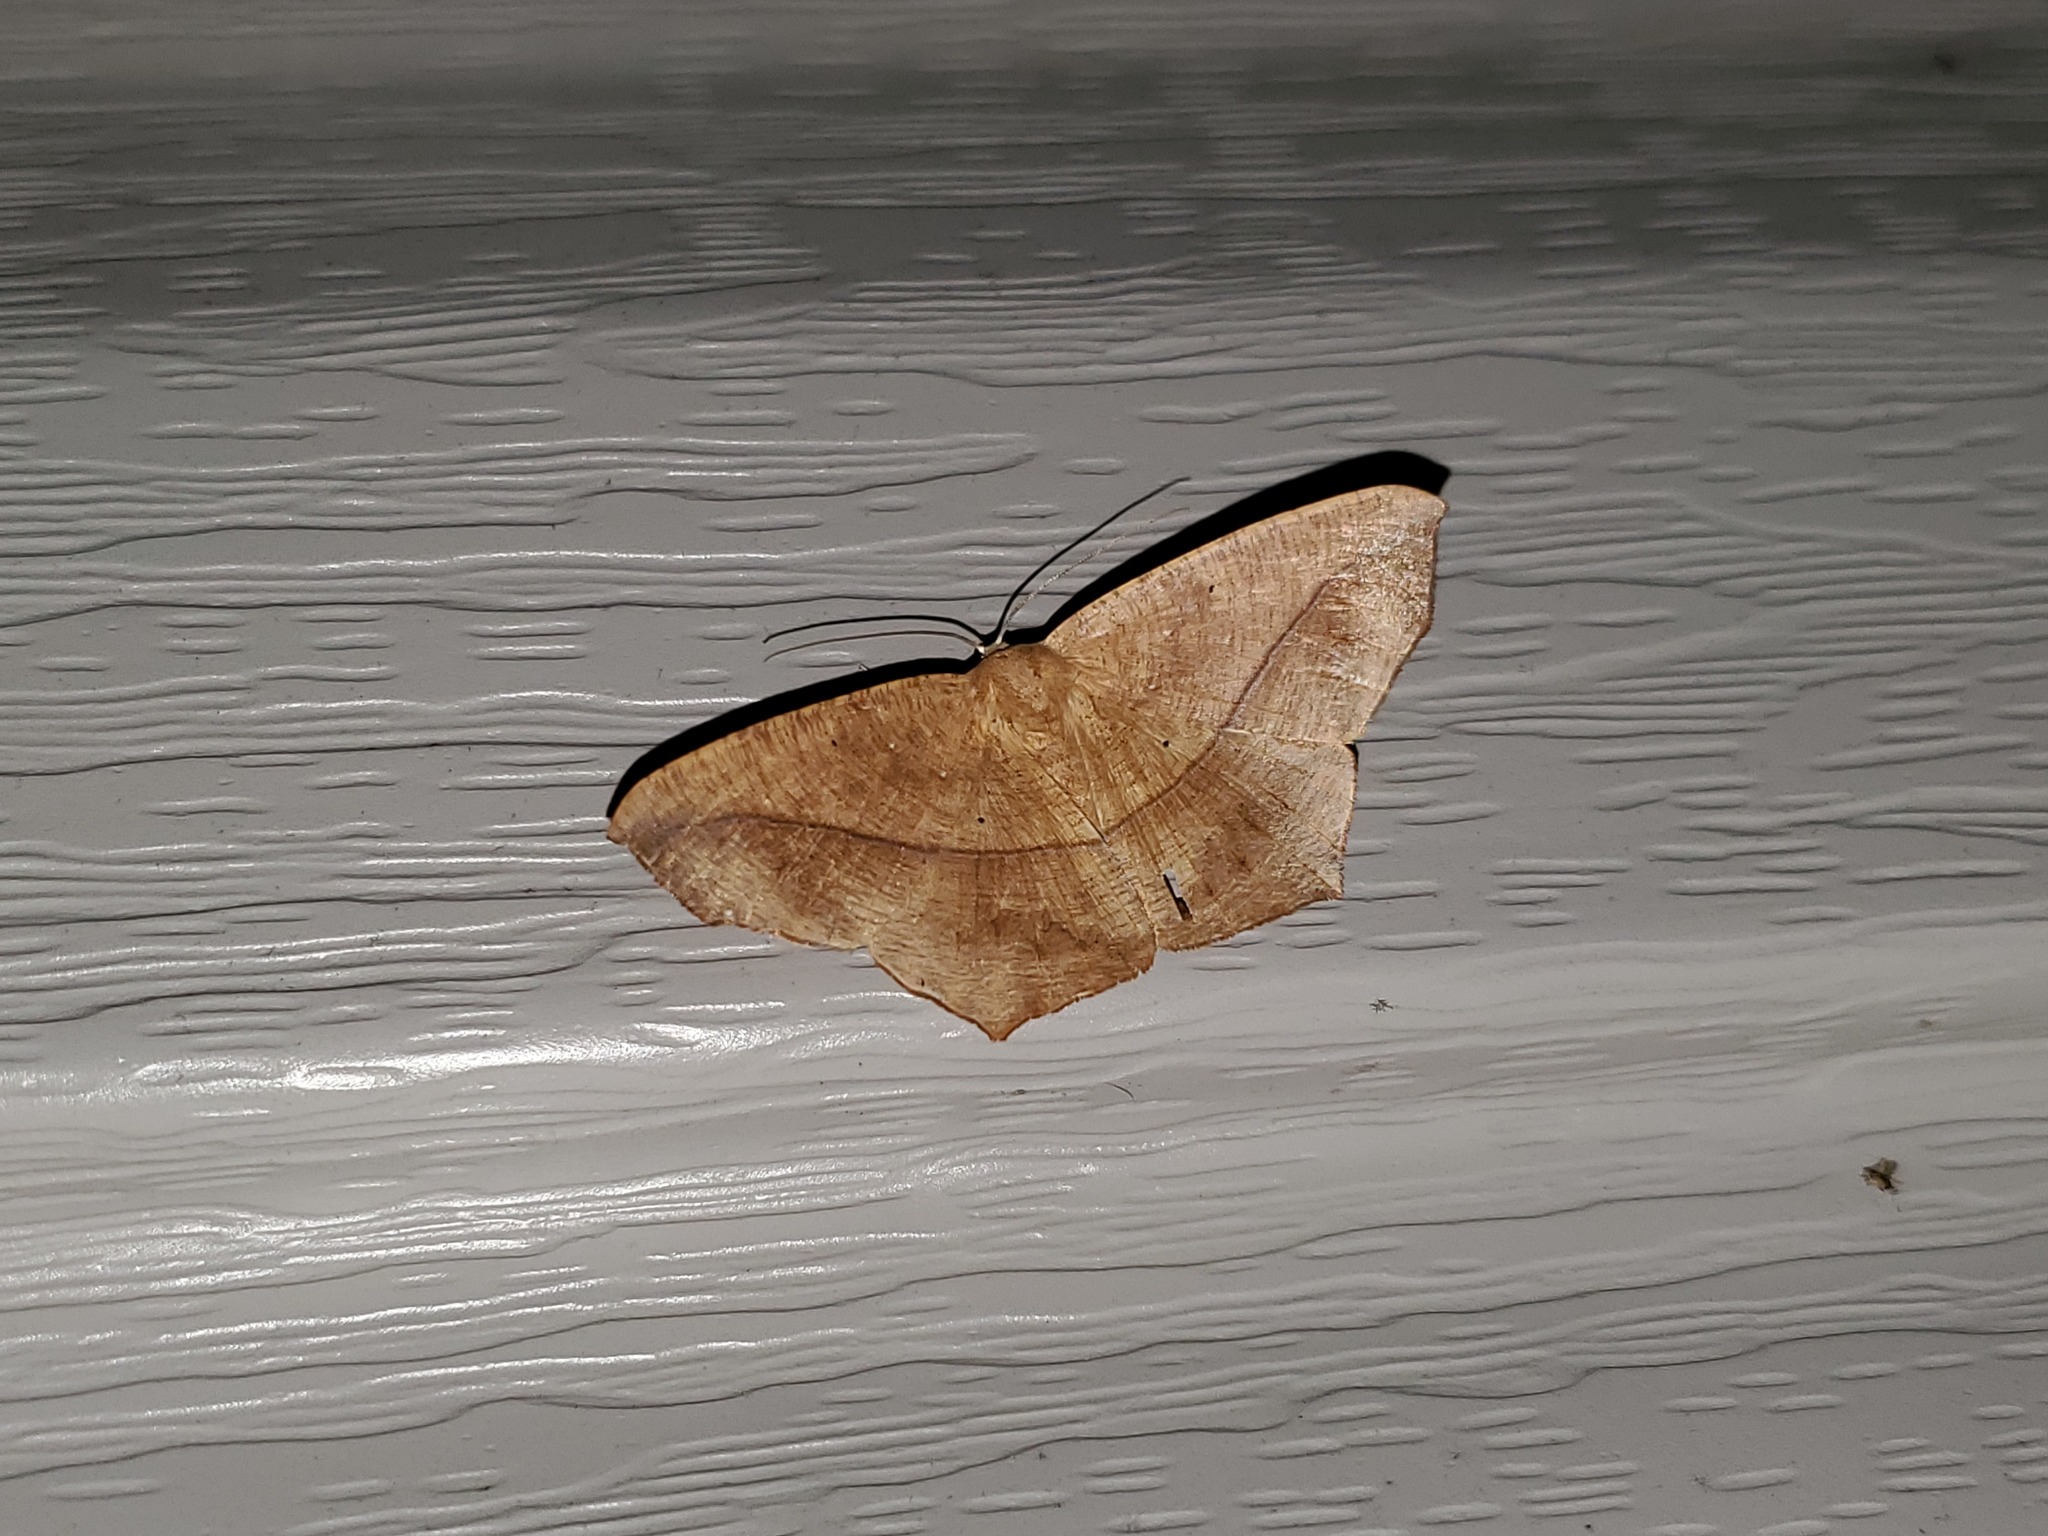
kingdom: Animalia
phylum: Arthropoda
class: Insecta
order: Lepidoptera
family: Geometridae
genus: Prochoerodes
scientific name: Prochoerodes lineola
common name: Large maple spanworm
